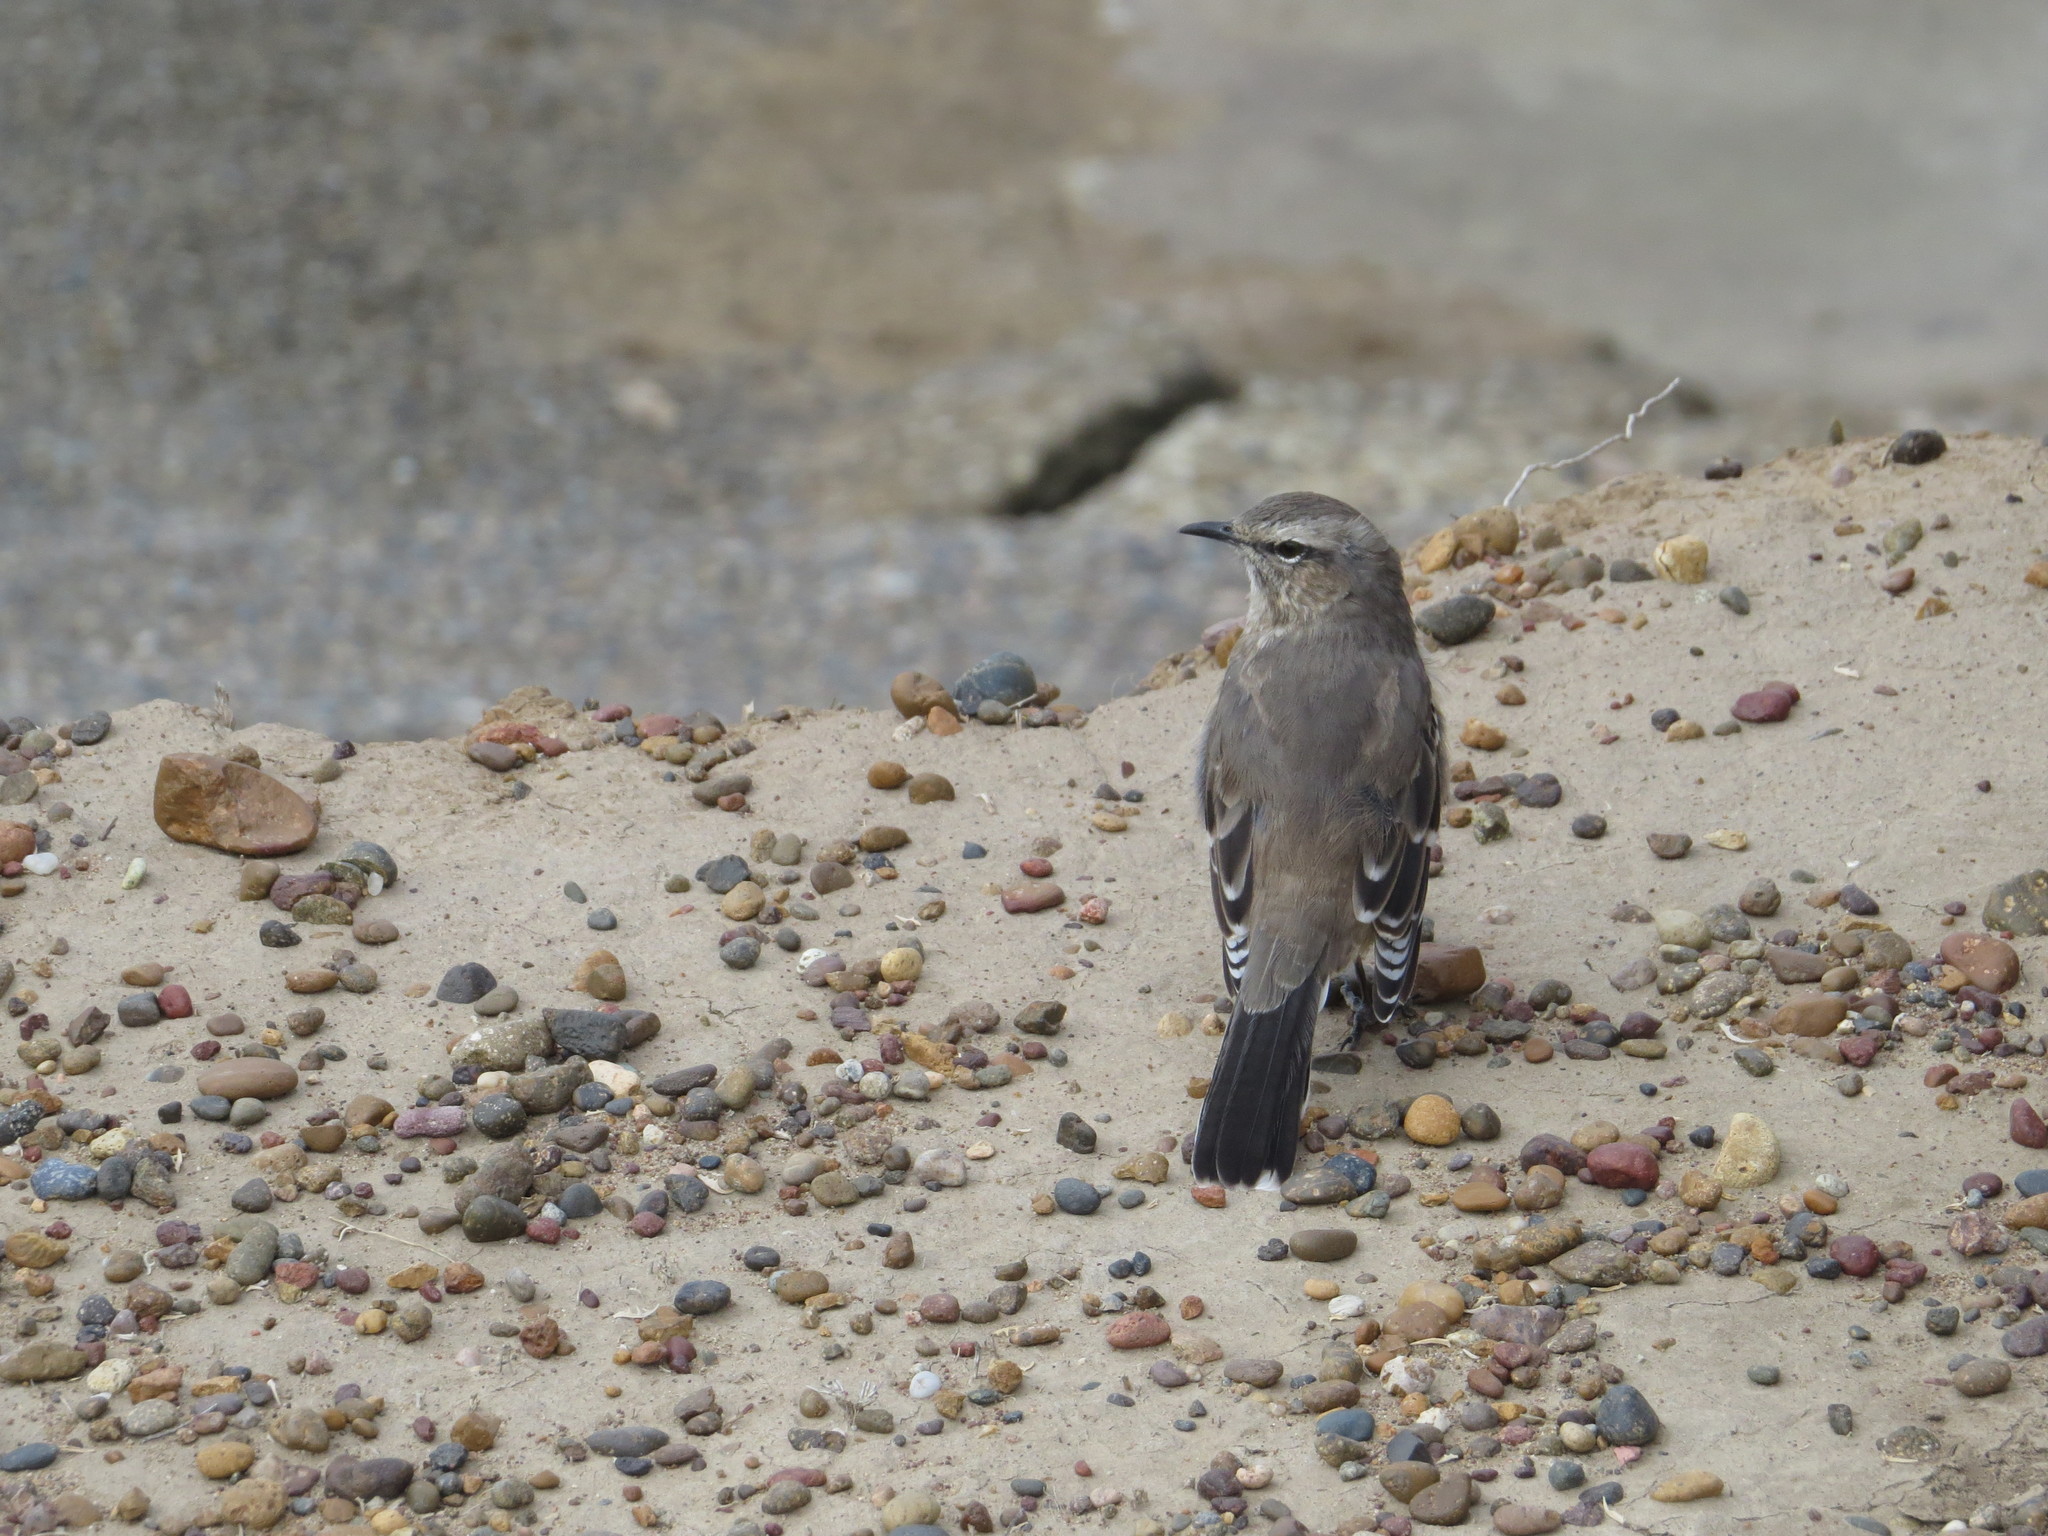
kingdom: Animalia
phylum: Chordata
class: Aves
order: Passeriformes
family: Mimidae
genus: Mimus
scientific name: Mimus patagonicus
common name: Patagonian mockingbird
